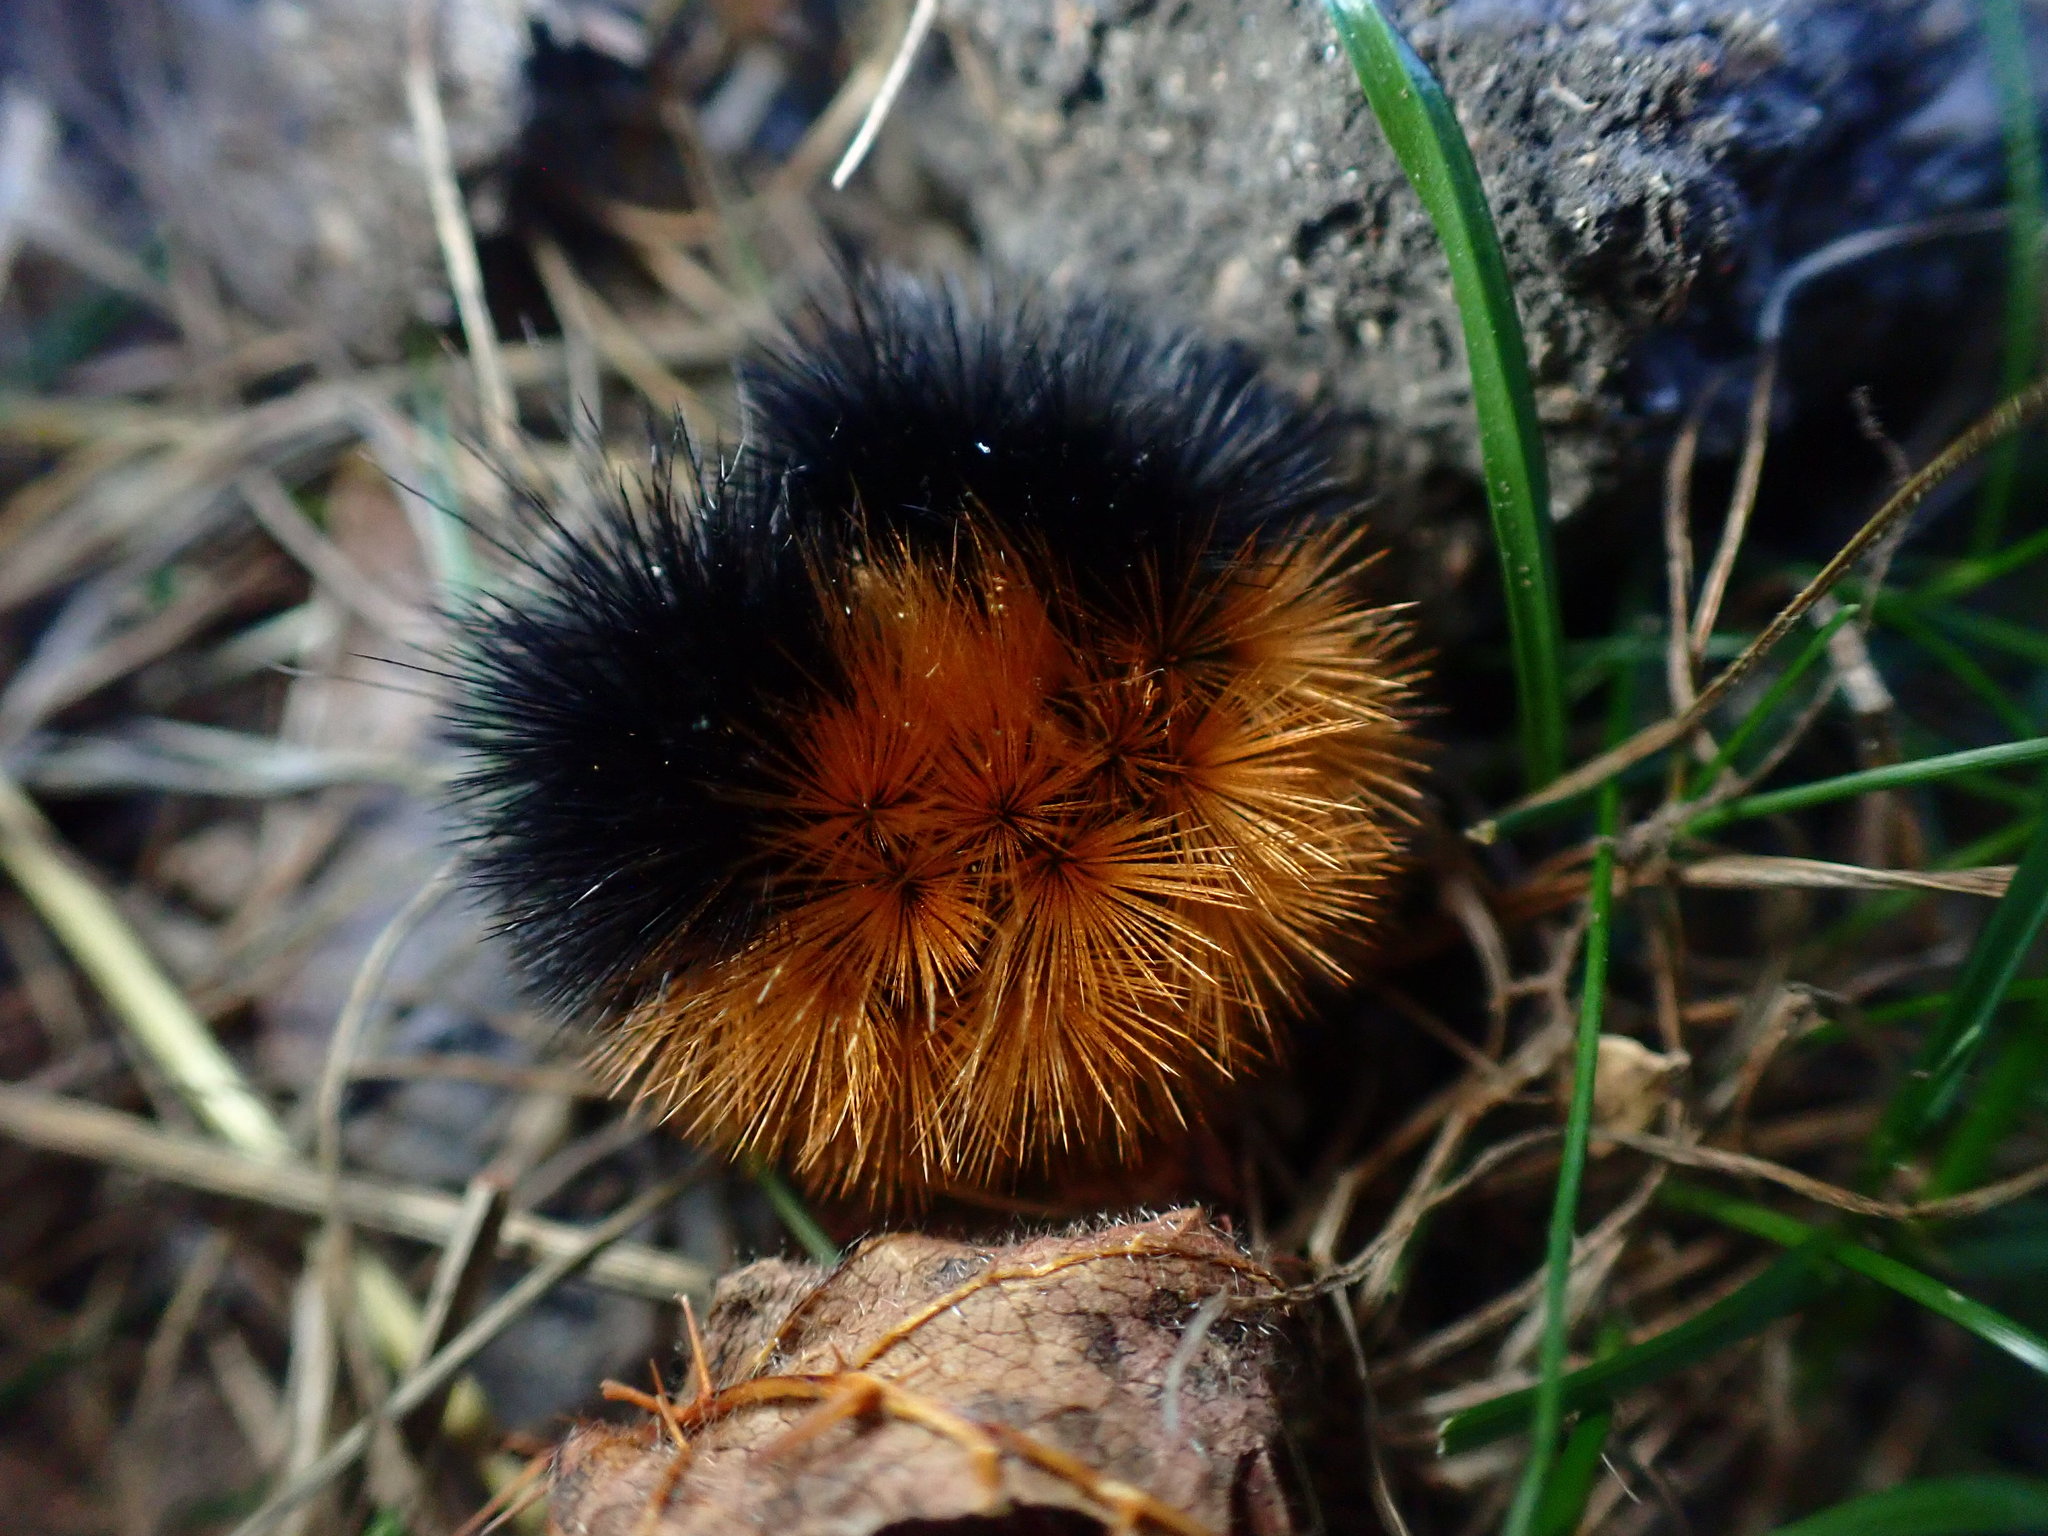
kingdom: Animalia
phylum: Arthropoda
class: Insecta
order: Lepidoptera
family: Erebidae
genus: Pyrrharctia
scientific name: Pyrrharctia isabella
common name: Isabella tiger moth
